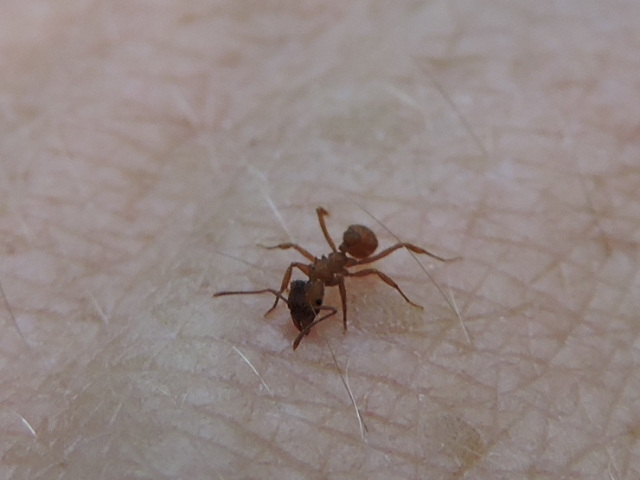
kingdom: Animalia
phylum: Arthropoda
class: Insecta
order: Hymenoptera
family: Formicidae
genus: Trachymyrmex
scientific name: Trachymyrmex septentrionalis
